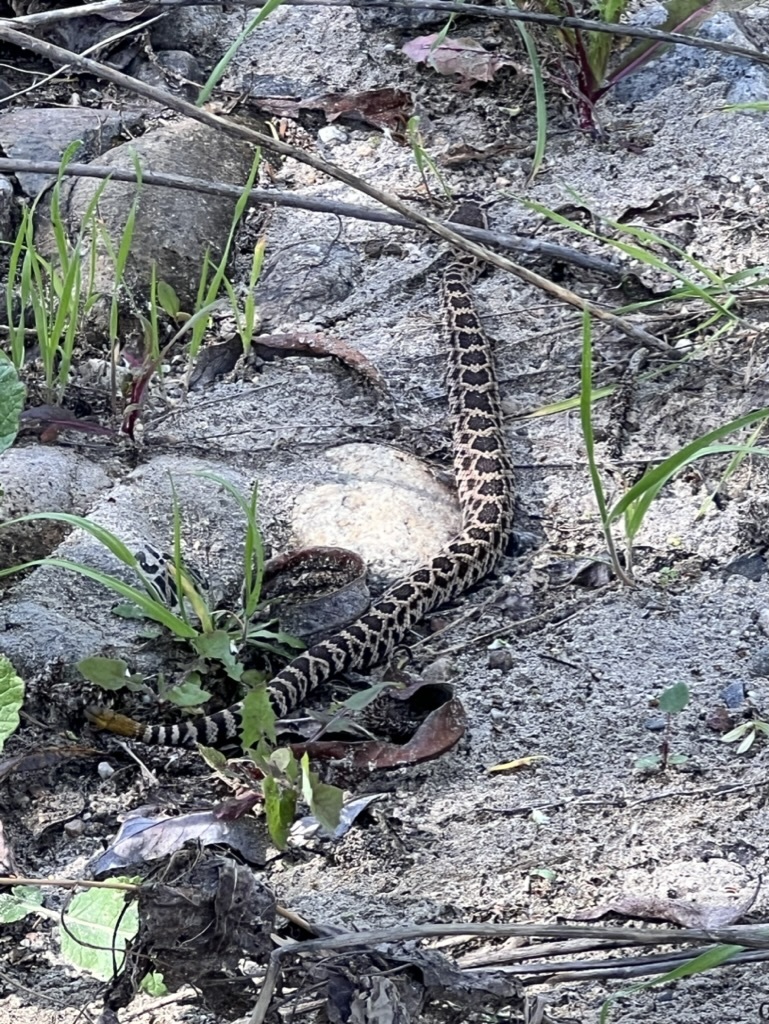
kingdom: Animalia
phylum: Chordata
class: Squamata
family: Viperidae
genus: Crotalus
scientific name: Crotalus oreganus
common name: Abyssus
